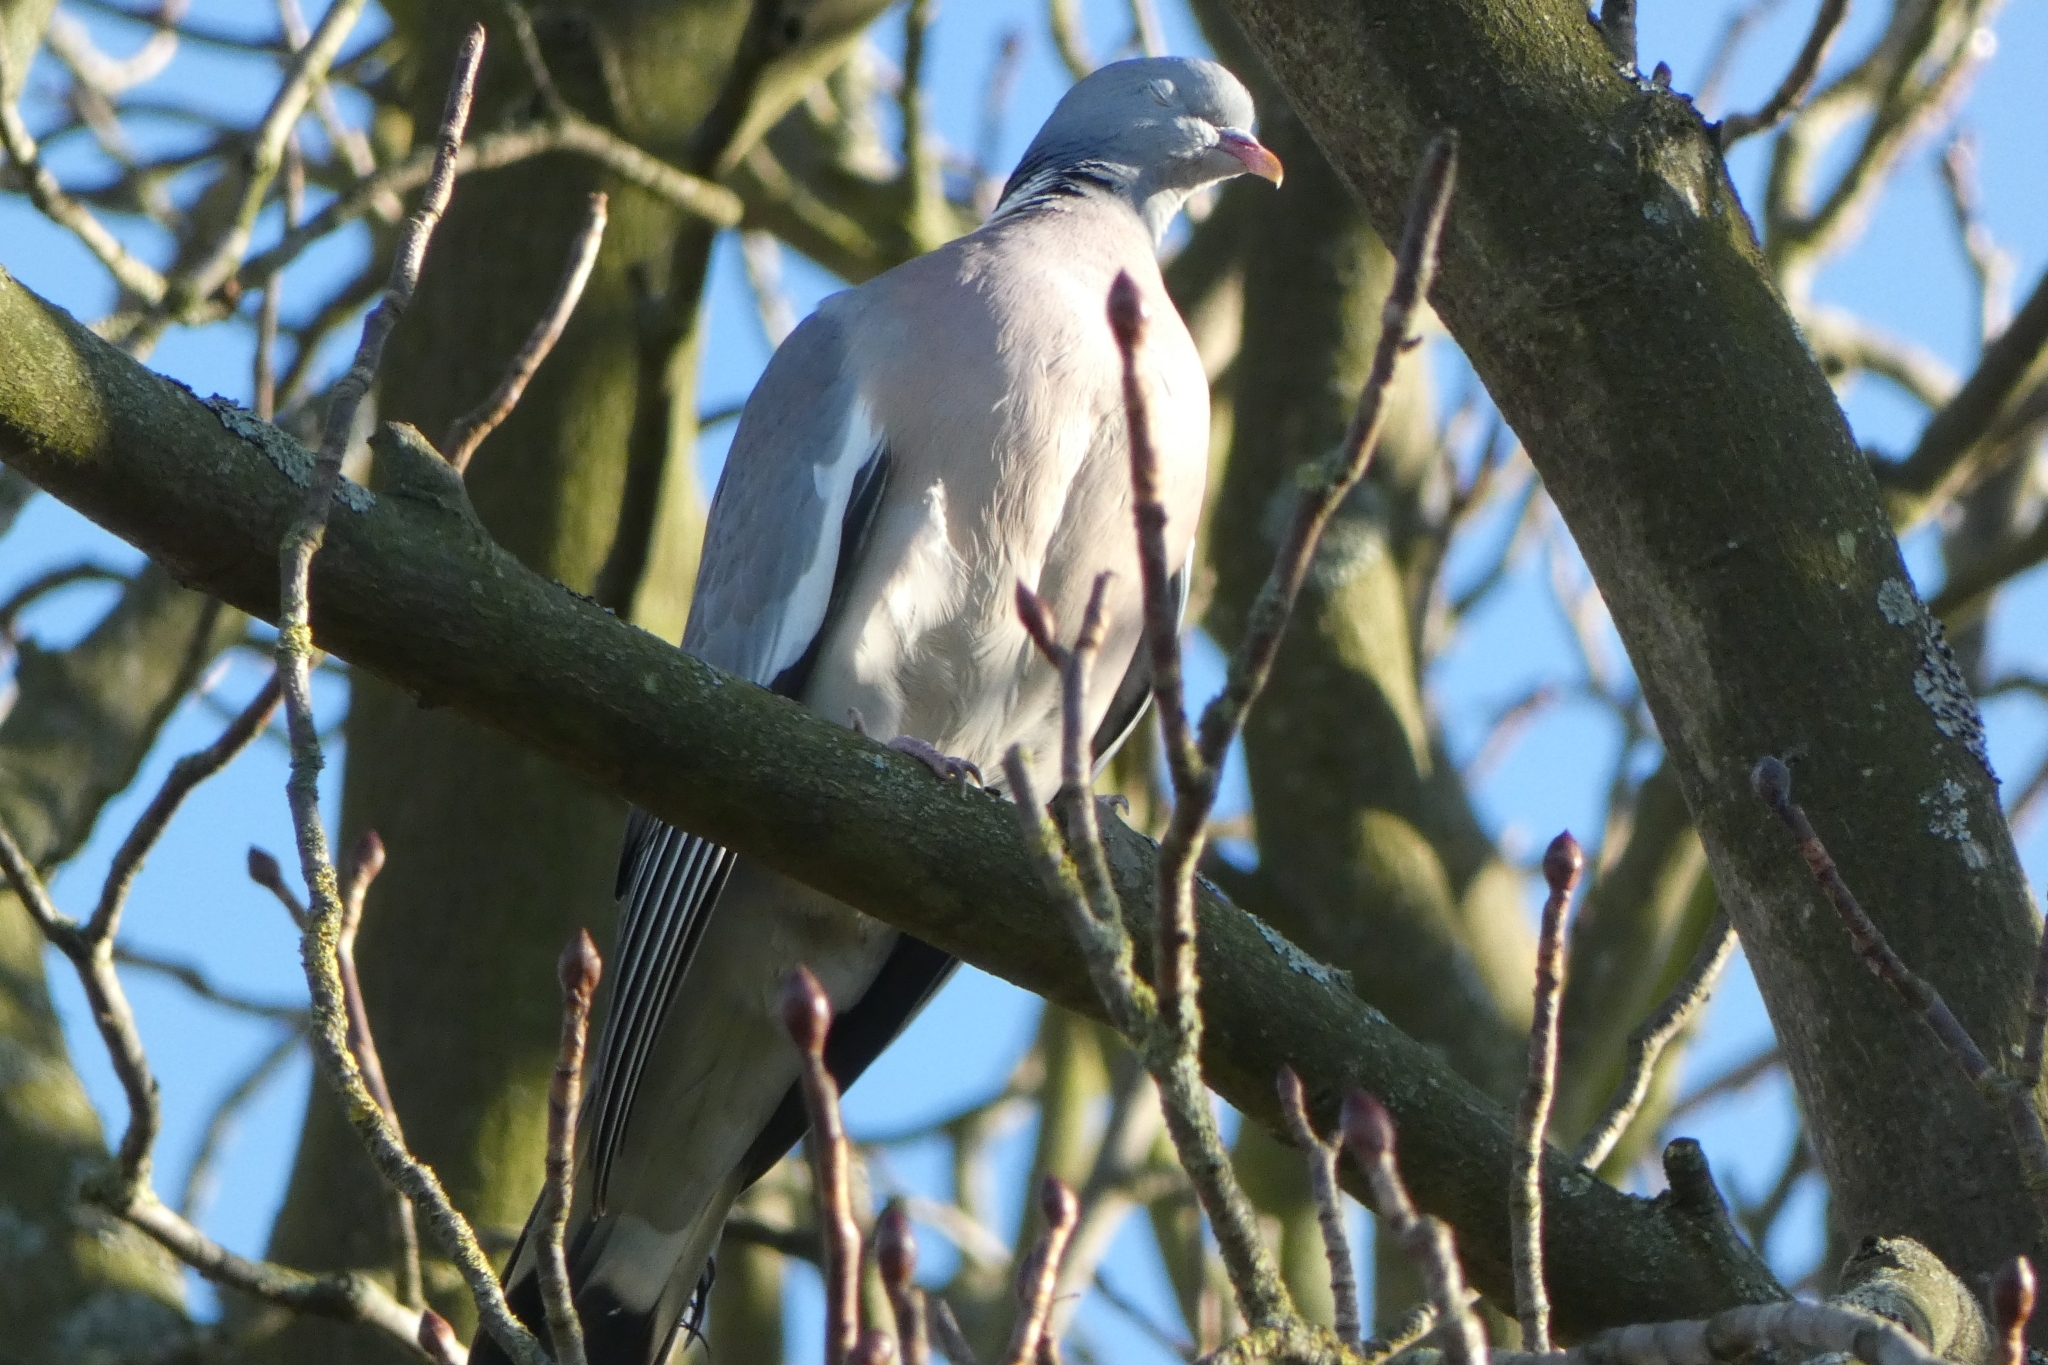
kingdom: Animalia
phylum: Chordata
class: Aves
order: Columbiformes
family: Columbidae
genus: Columba
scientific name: Columba palumbus
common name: Common wood pigeon
